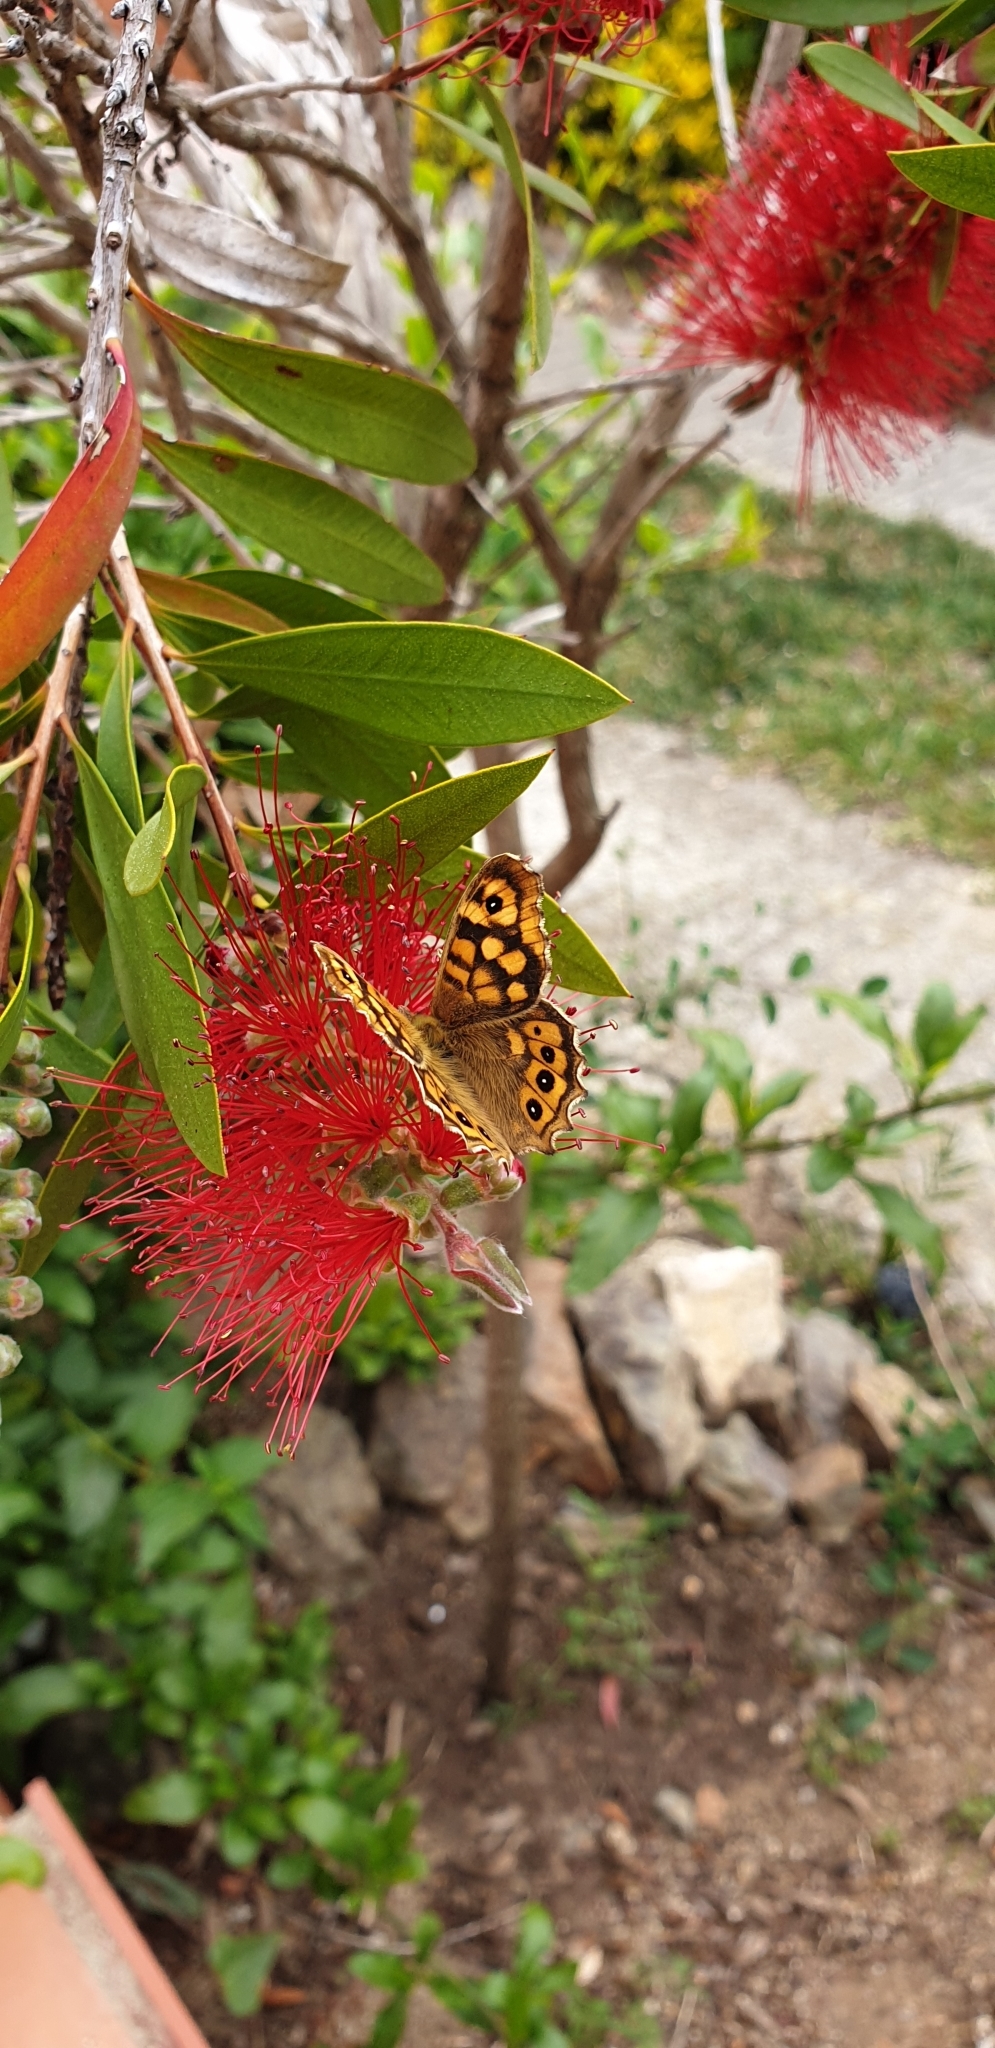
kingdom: Animalia
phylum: Arthropoda
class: Insecta
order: Lepidoptera
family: Nymphalidae
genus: Pararge
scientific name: Pararge aegeria
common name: Speckled wood
